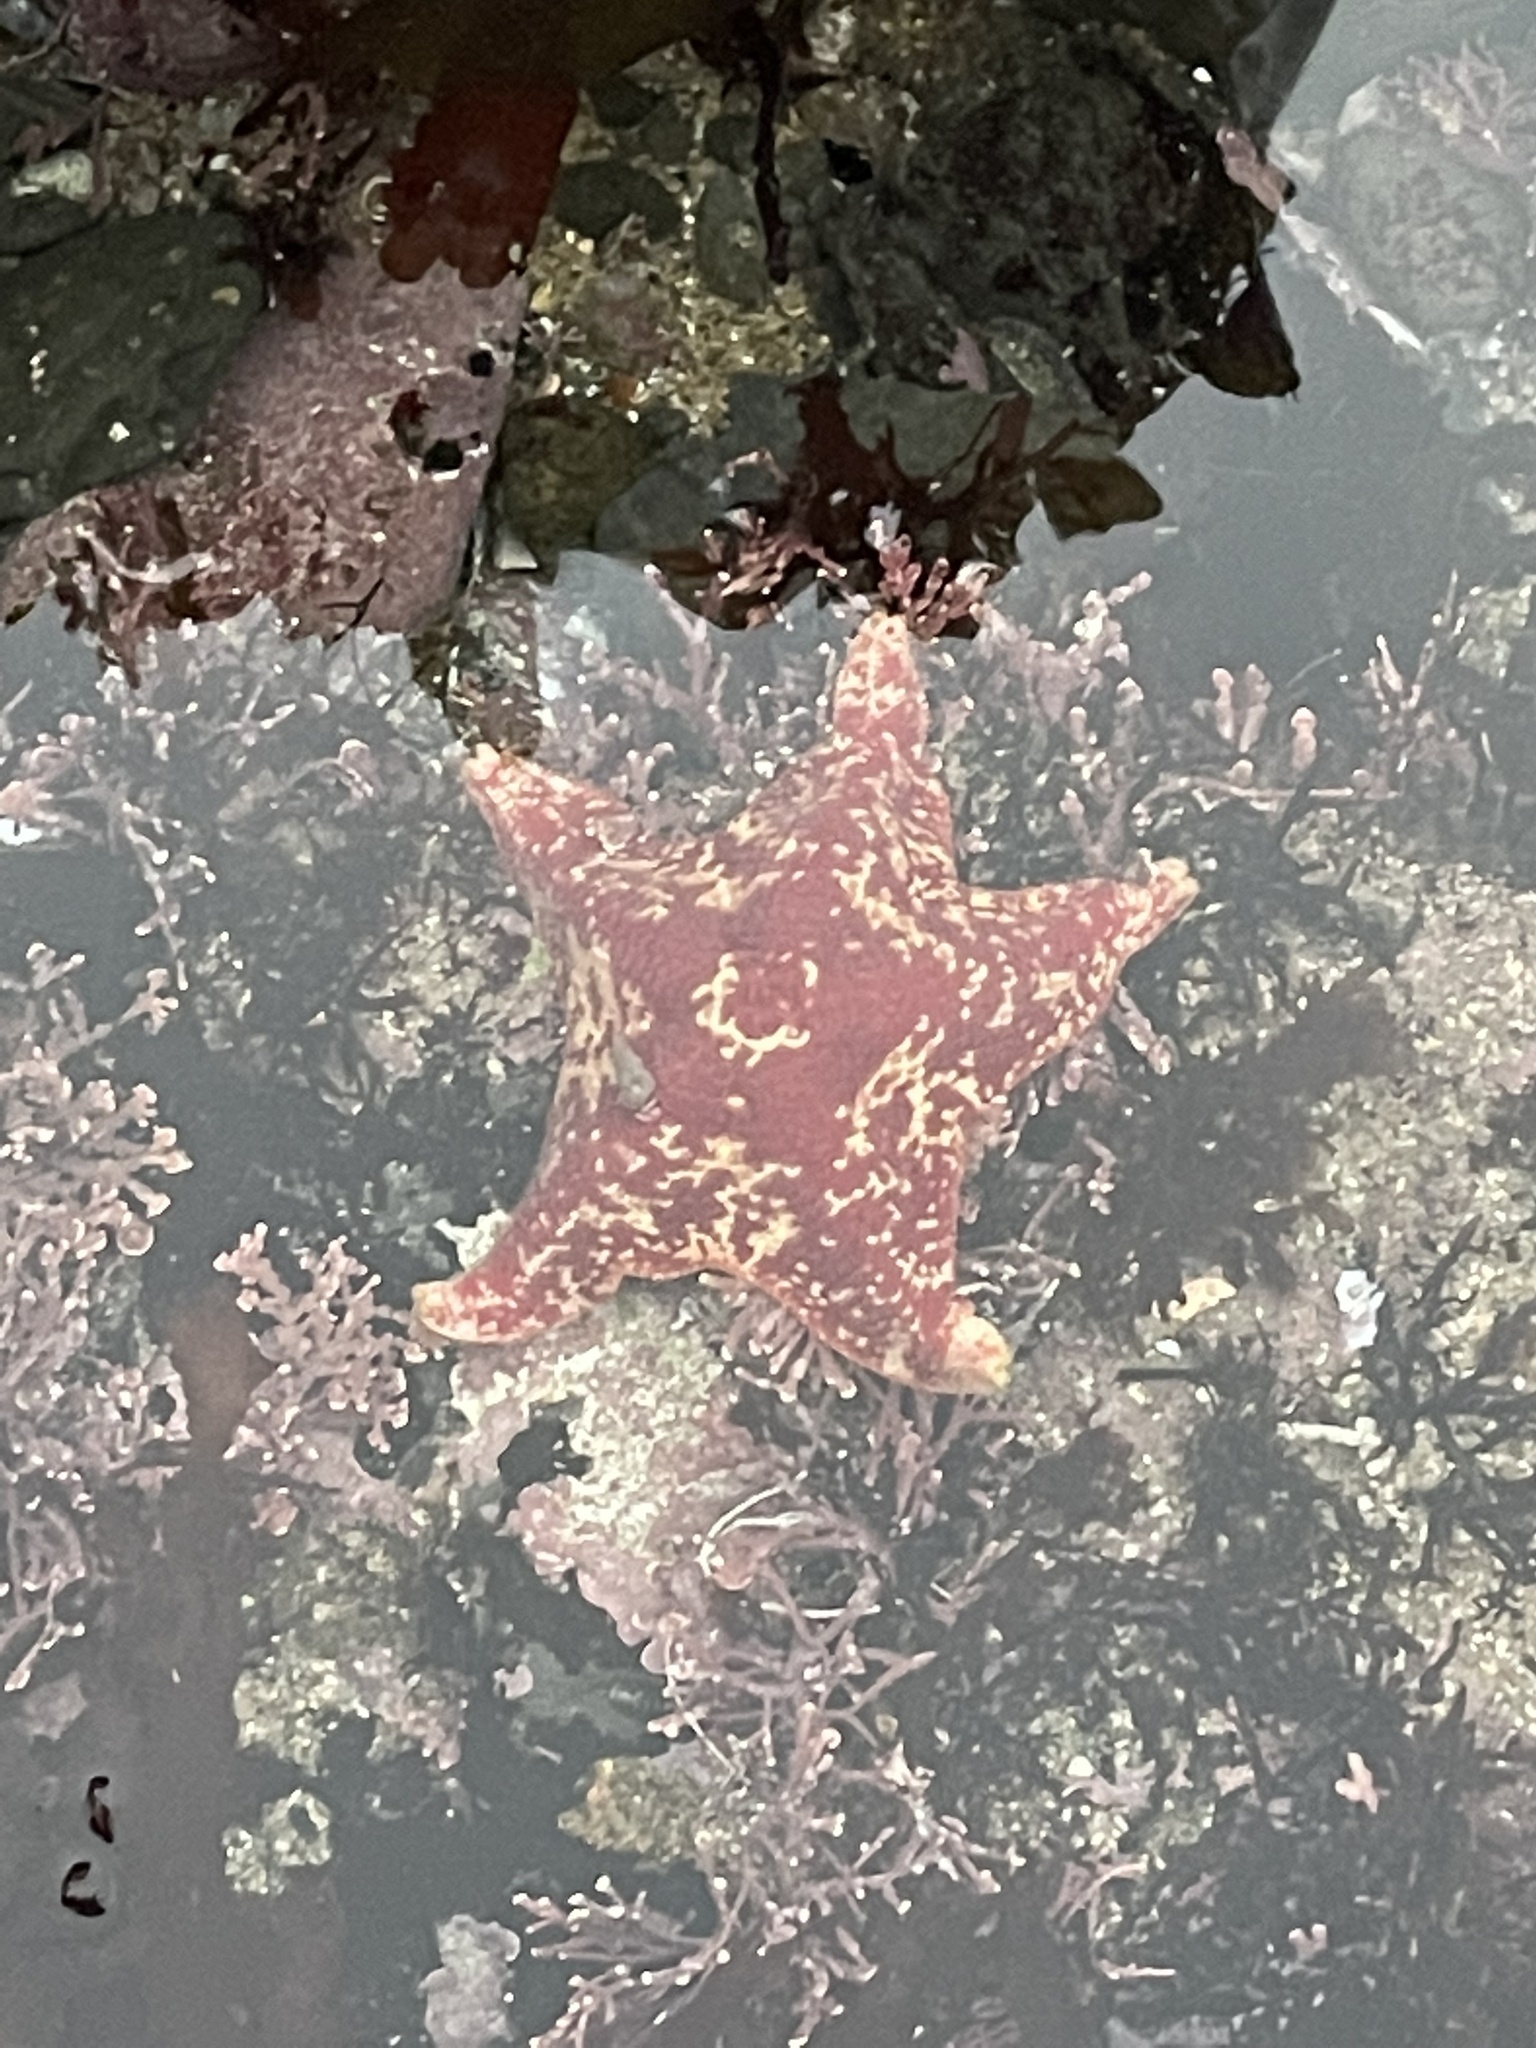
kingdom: Animalia
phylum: Echinodermata
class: Asteroidea
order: Valvatida
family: Asterinidae
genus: Patiria
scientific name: Patiria miniata
